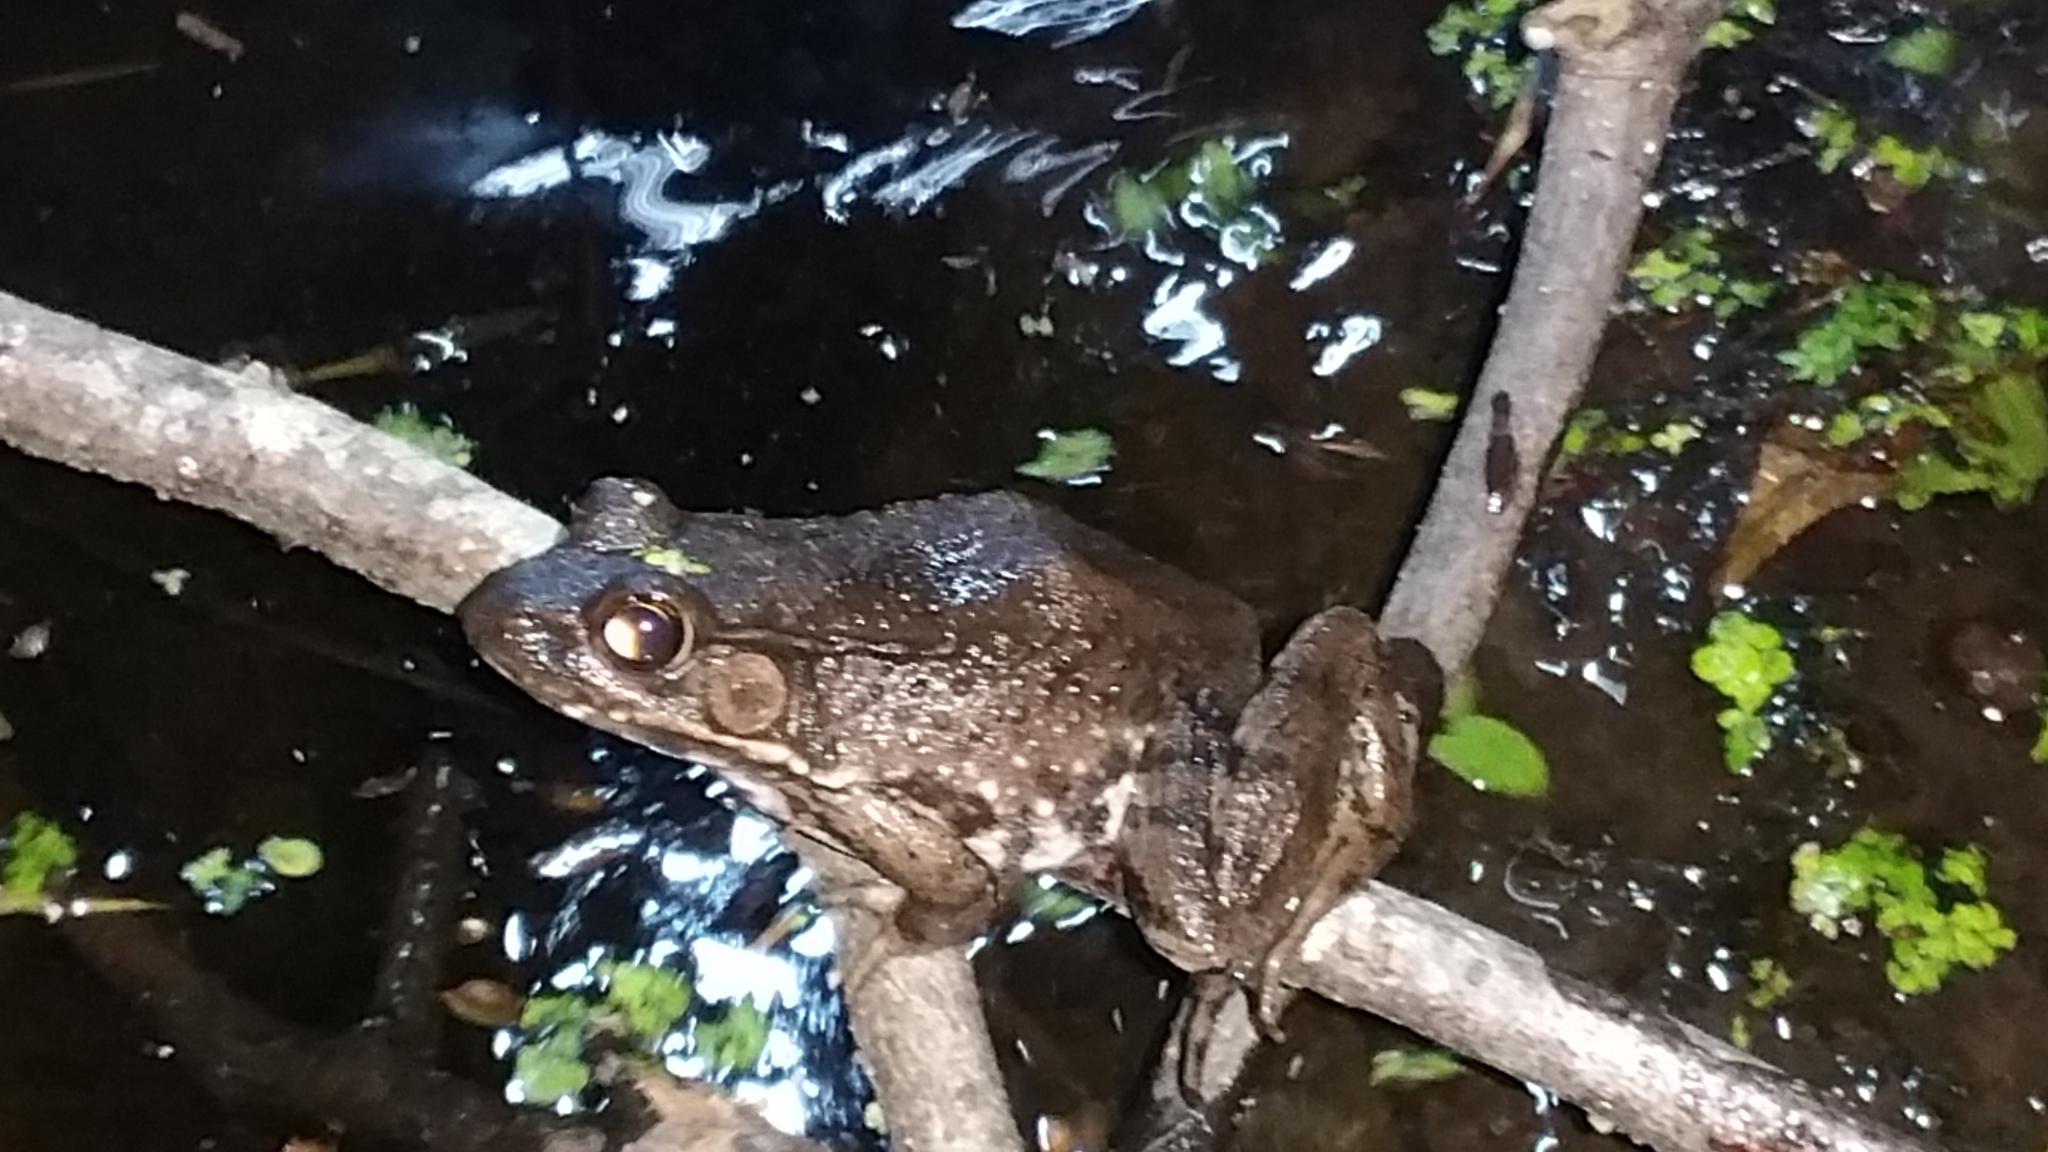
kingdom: Animalia
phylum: Chordata
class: Amphibia
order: Anura
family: Ranidae
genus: Lithobates
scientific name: Lithobates clamitans
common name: Green frog
